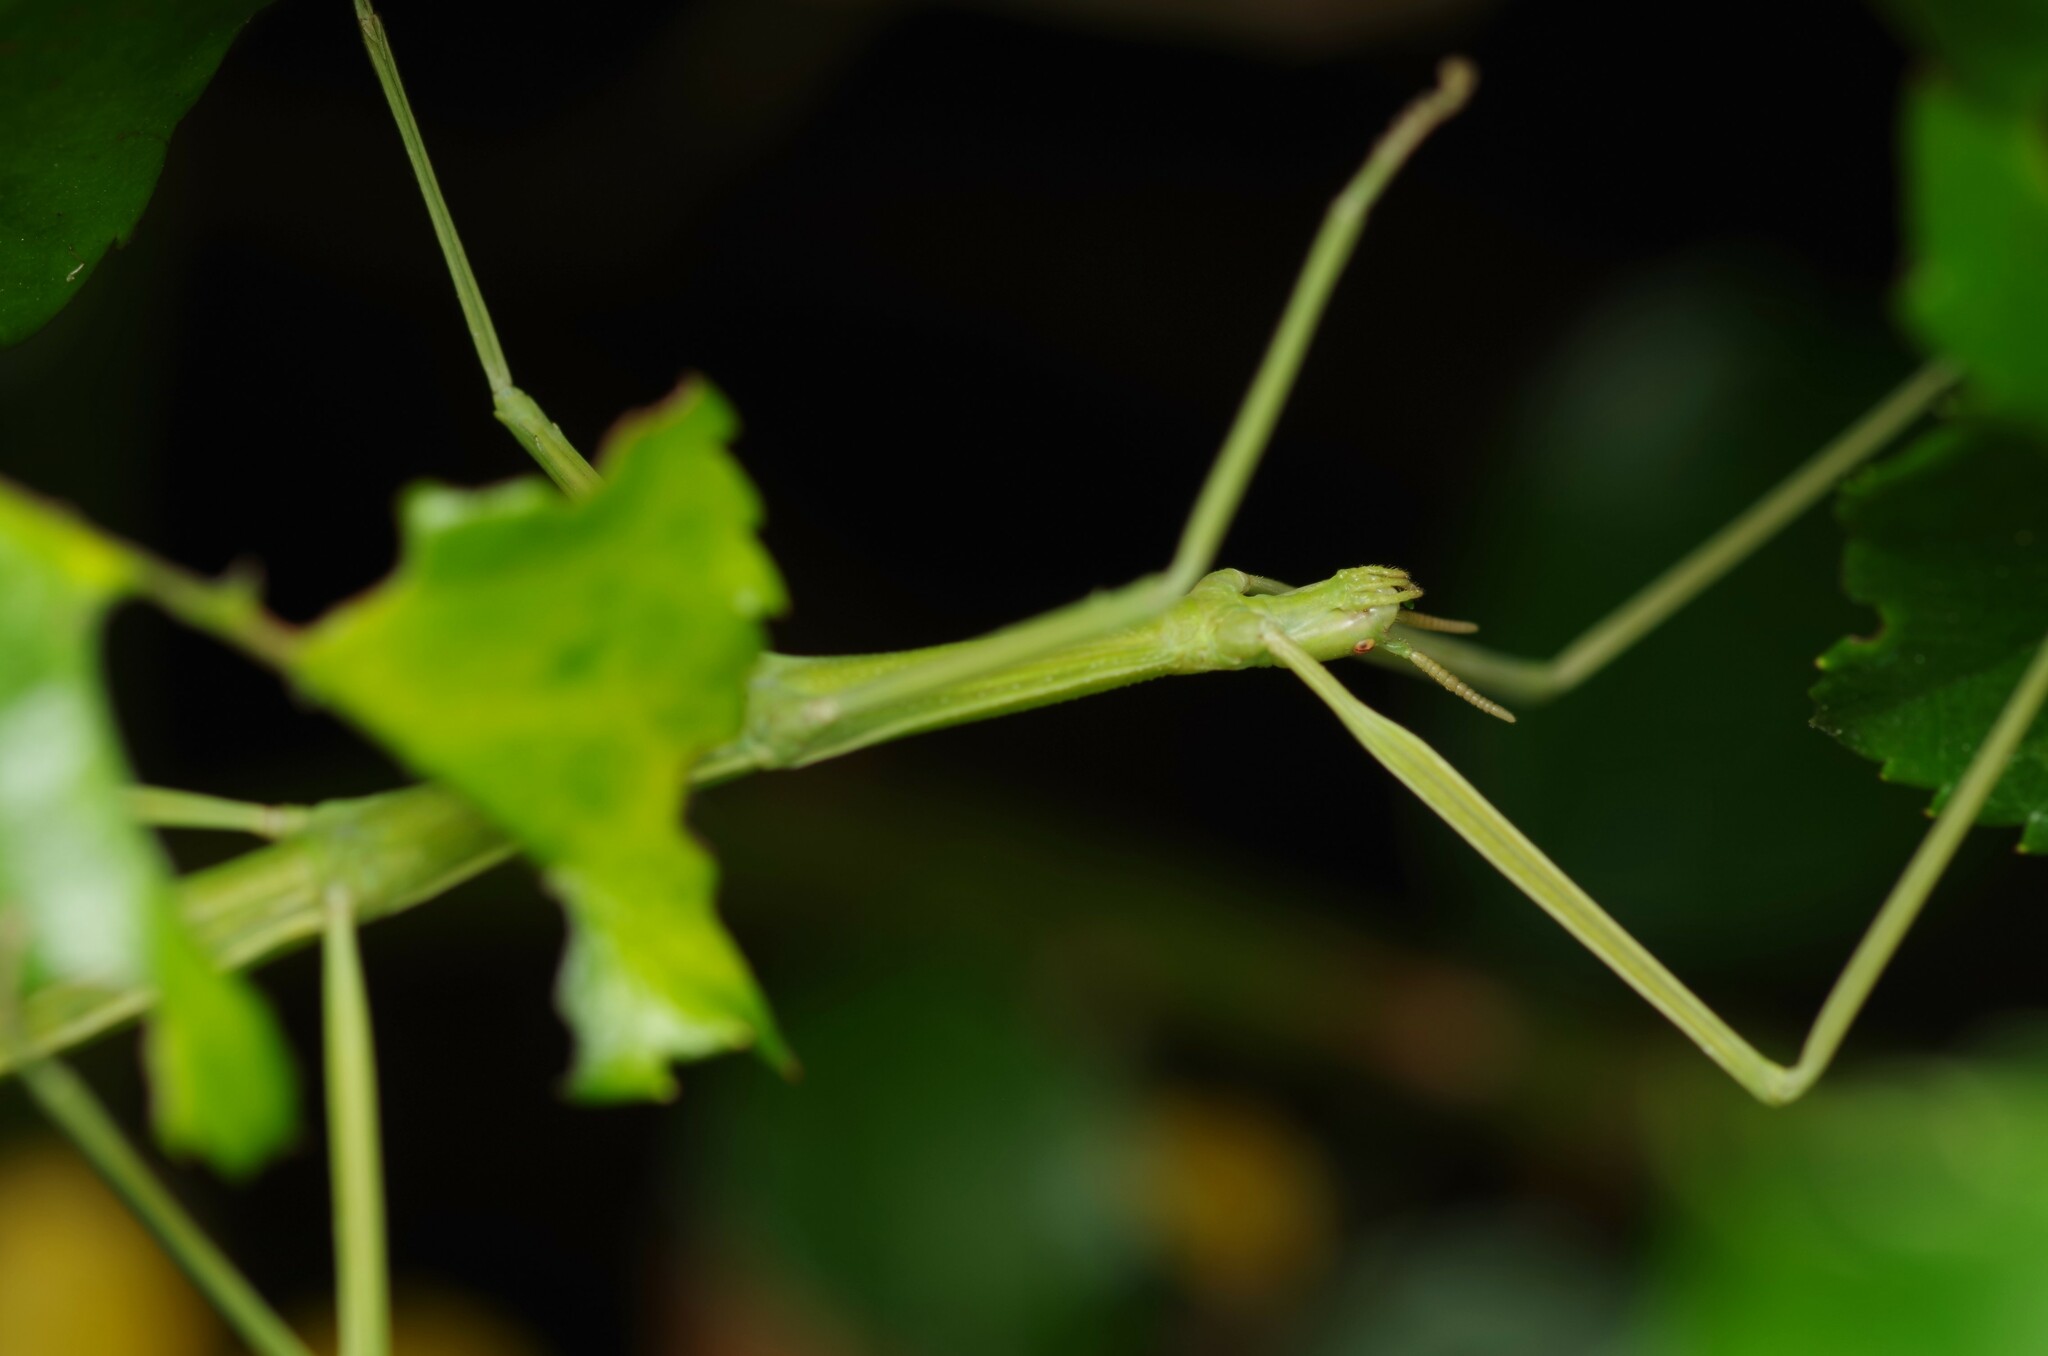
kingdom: Animalia
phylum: Arthropoda
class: Insecta
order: Phasmida
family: Bacillidae
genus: Clonopsis
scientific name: Clonopsis gallica
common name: French stick insect
